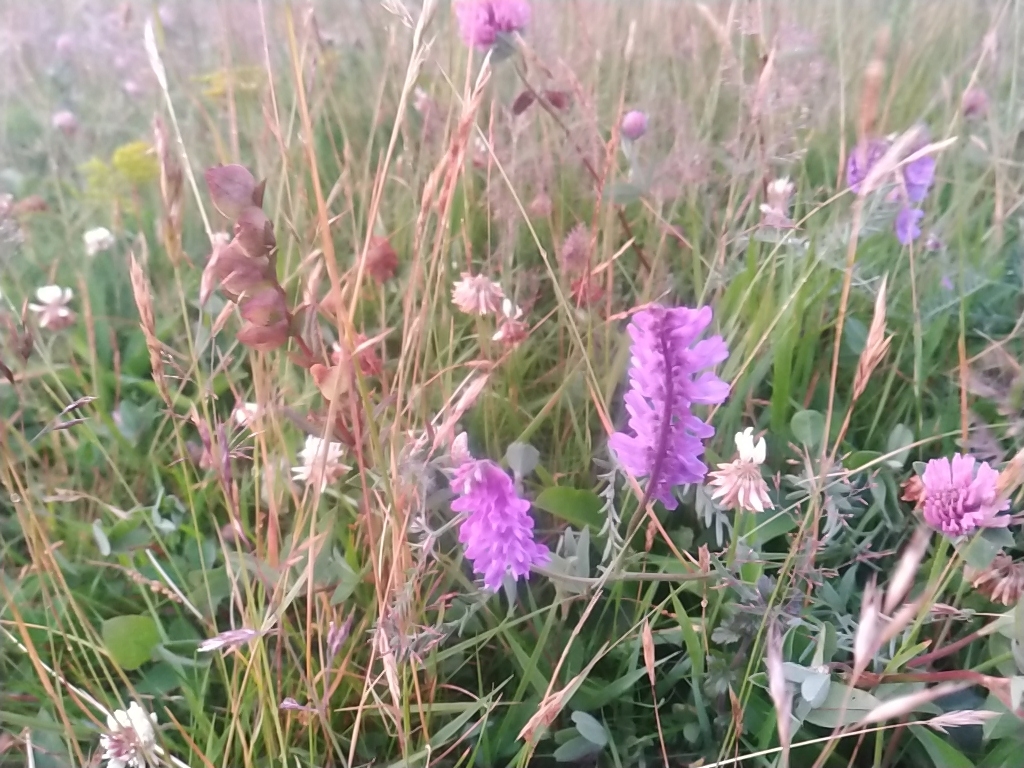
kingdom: Plantae
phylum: Tracheophyta
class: Magnoliopsida
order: Fabales
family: Fabaceae
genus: Vicia
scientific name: Vicia cracca
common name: Bird vetch
